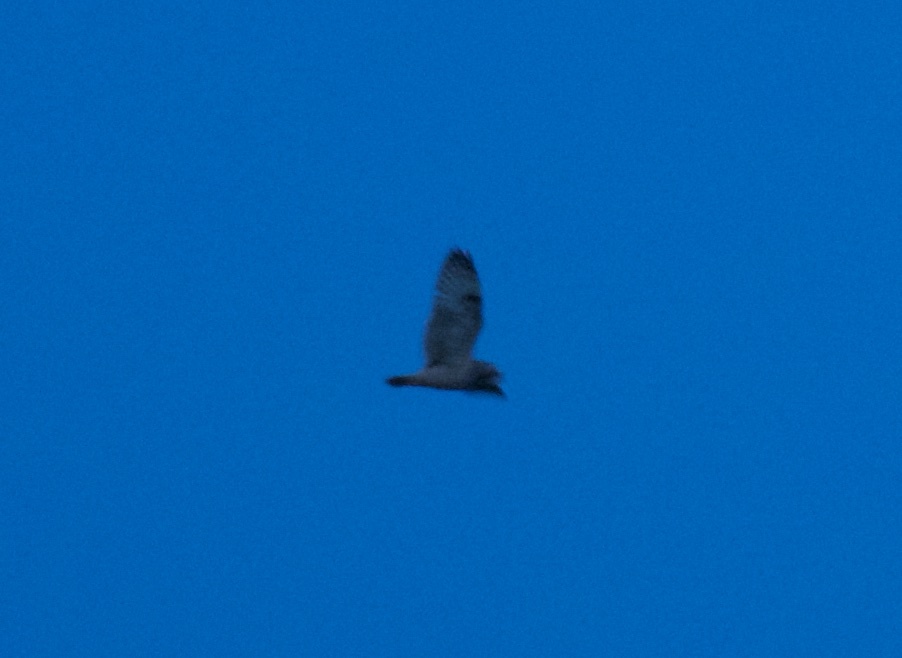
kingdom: Animalia
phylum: Chordata
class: Aves
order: Strigiformes
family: Strigidae
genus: Asio
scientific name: Asio flammeus
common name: Short-eared owl
